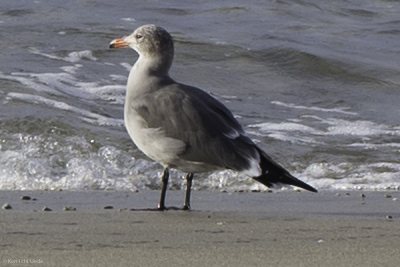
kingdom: Animalia
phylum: Chordata
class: Aves
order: Charadriiformes
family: Laridae
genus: Larus
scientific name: Larus heermanni
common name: Heermann's gull
